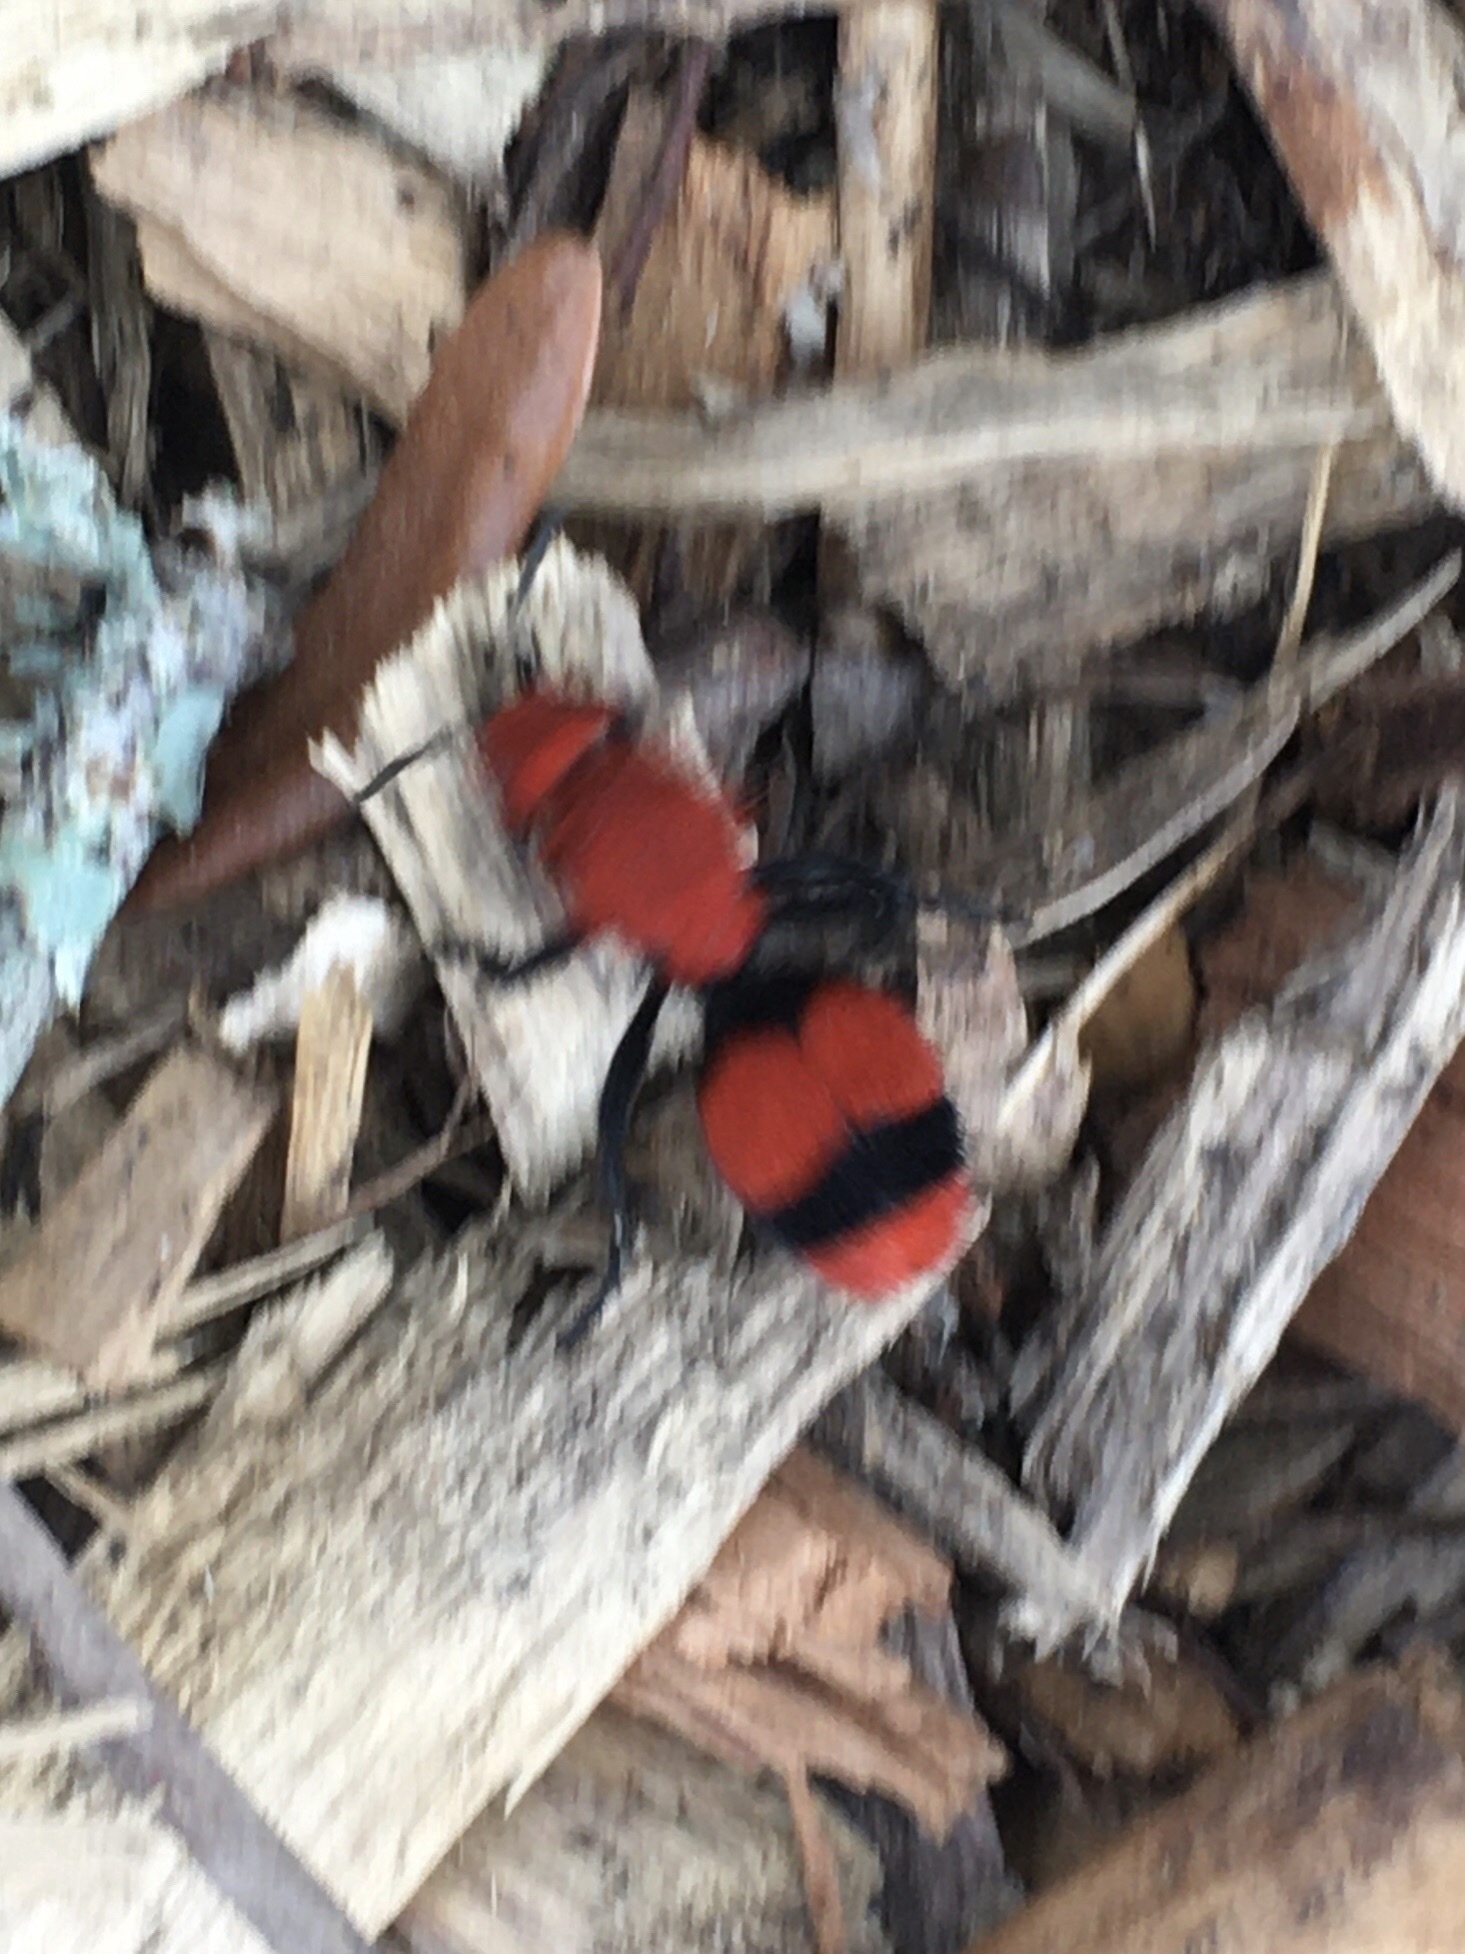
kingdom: Animalia
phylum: Arthropoda
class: Insecta
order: Hymenoptera
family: Mutillidae
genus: Dasymutilla
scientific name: Dasymutilla occidentalis
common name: Common eastern velvet ant
